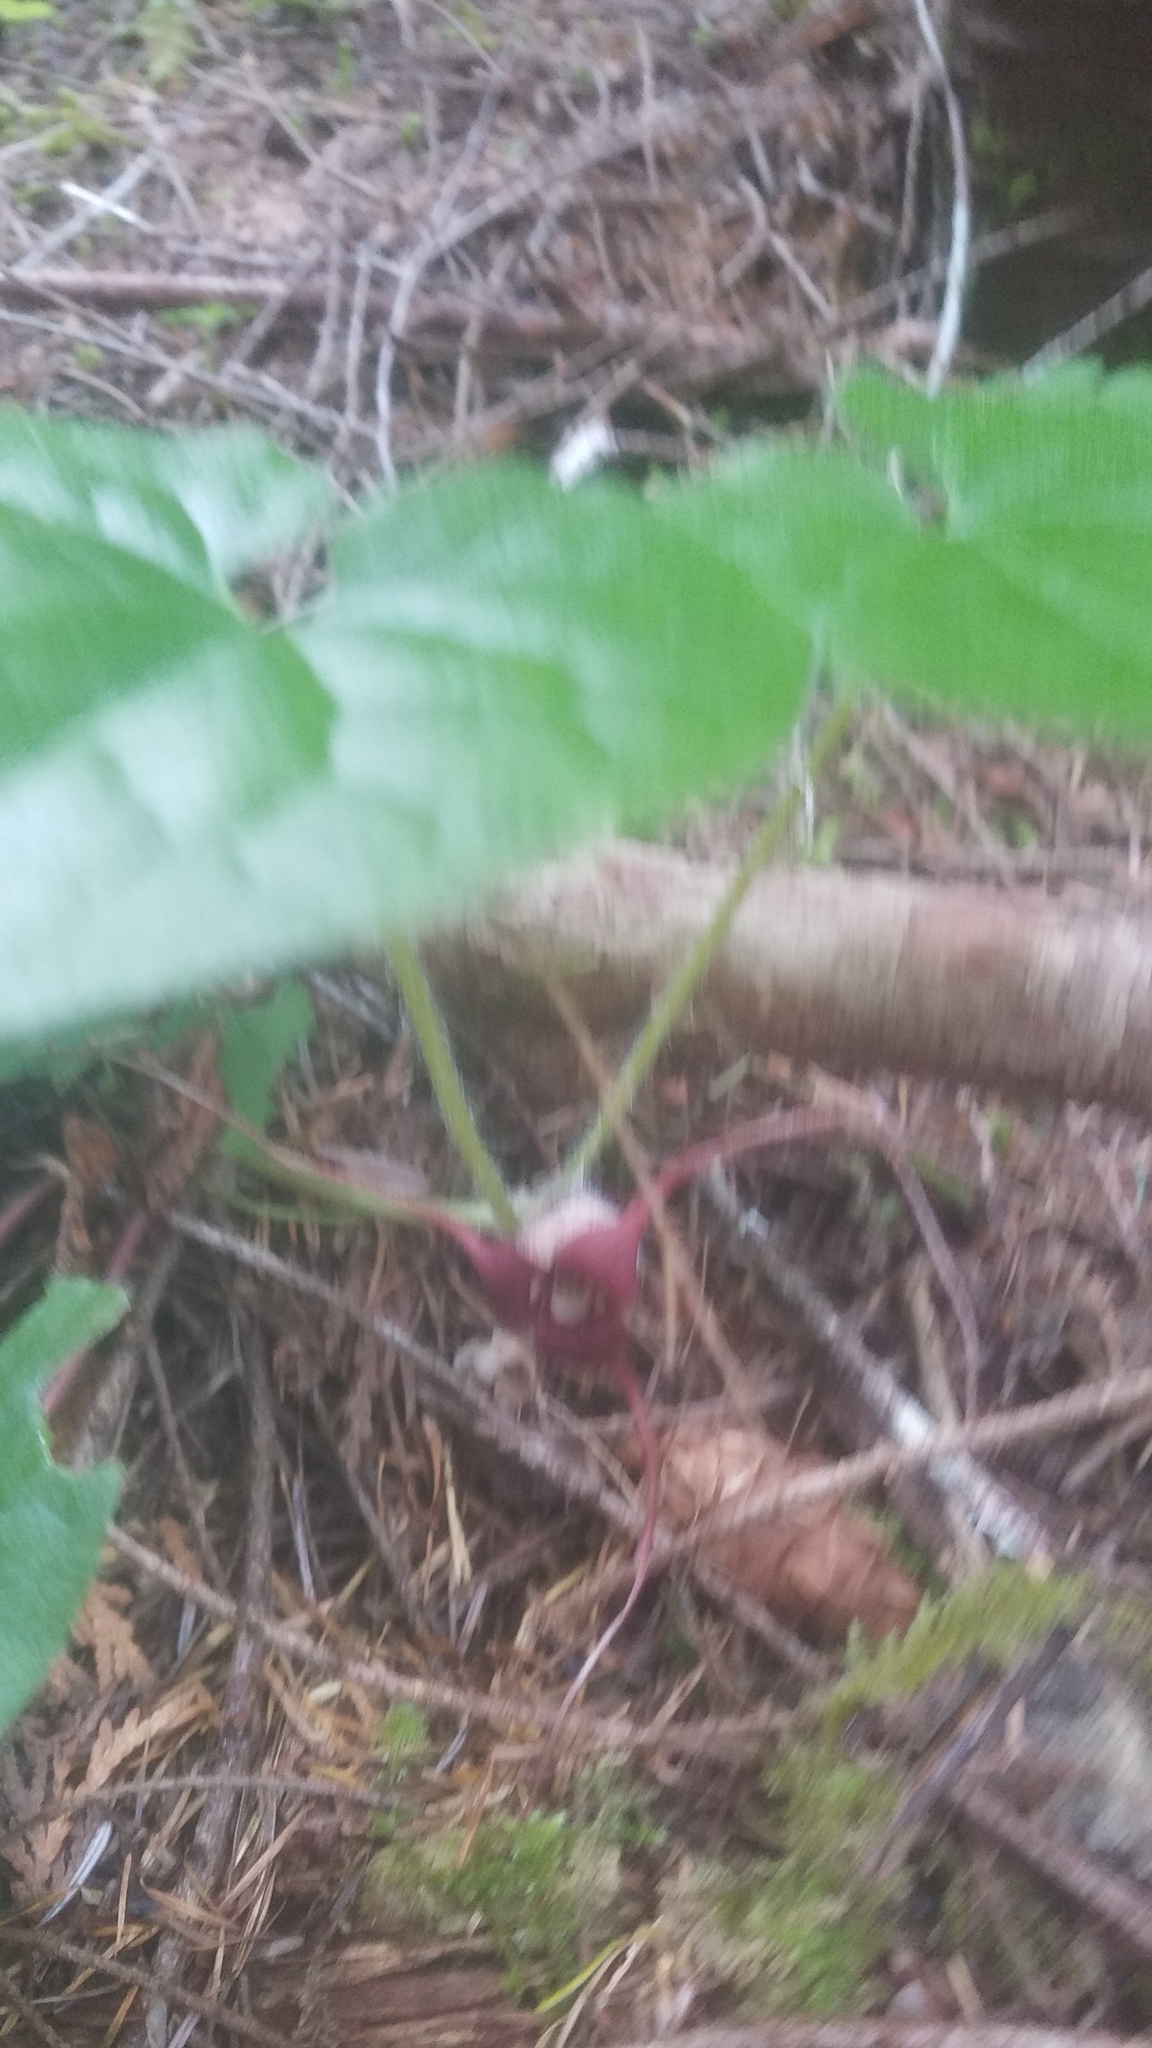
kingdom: Plantae
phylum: Tracheophyta
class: Magnoliopsida
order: Piperales
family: Aristolochiaceae
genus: Asarum
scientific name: Asarum caudatum
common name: Wild ginger
